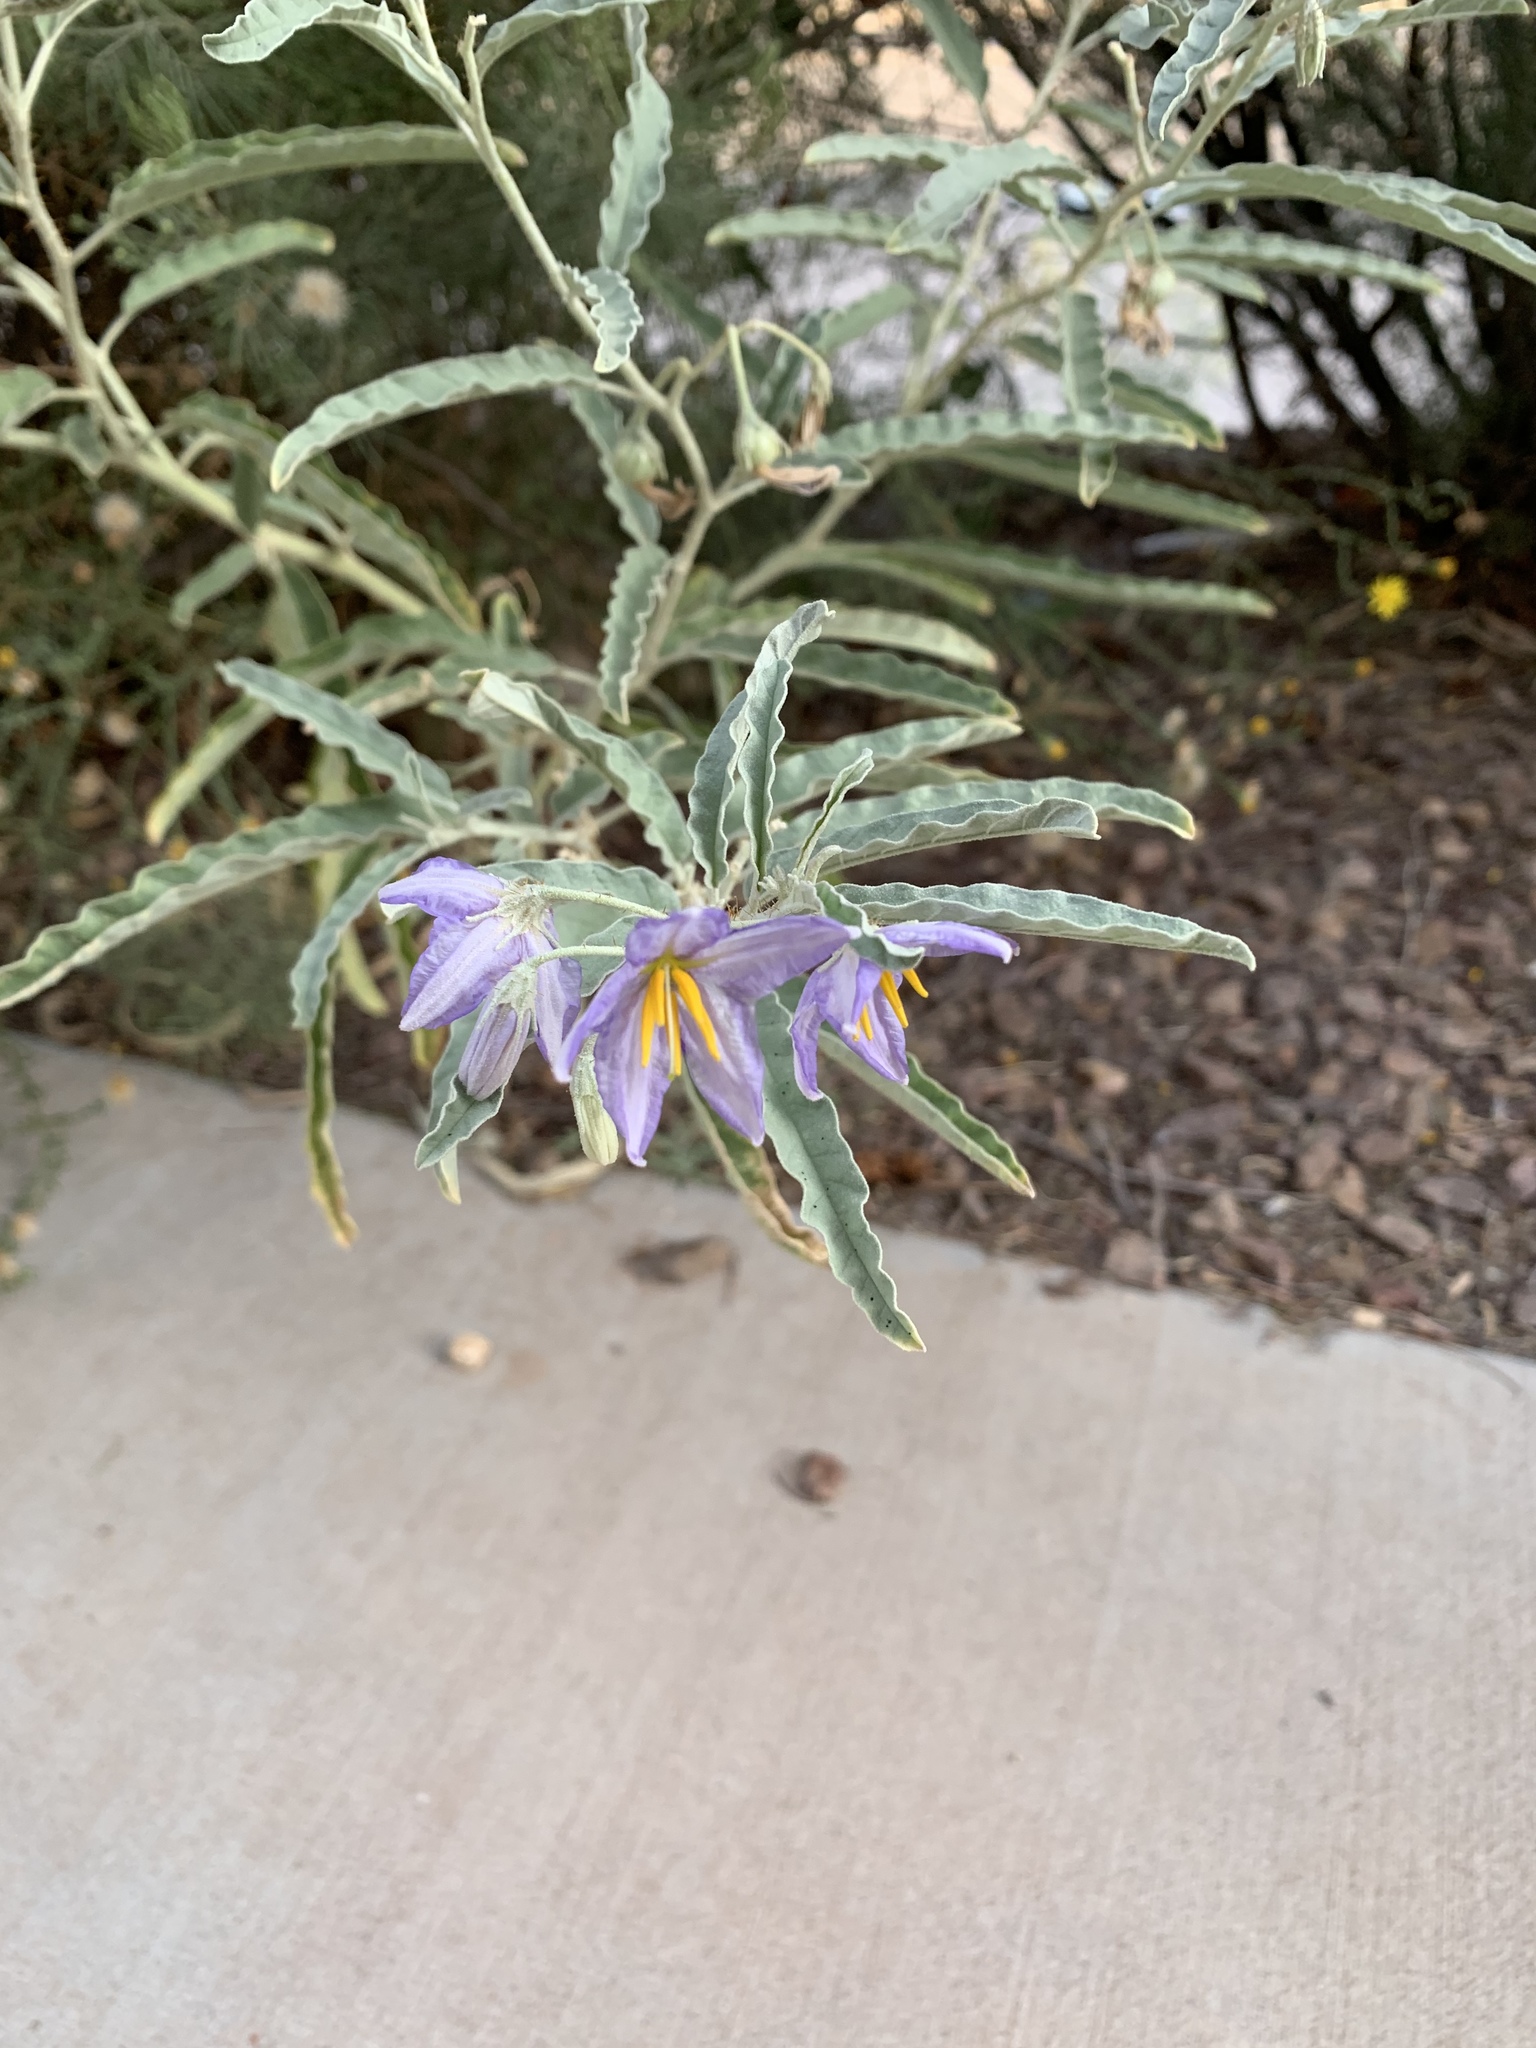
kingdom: Plantae
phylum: Tracheophyta
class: Magnoliopsida
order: Solanales
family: Solanaceae
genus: Solanum
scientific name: Solanum elaeagnifolium
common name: Silverleaf nightshade
